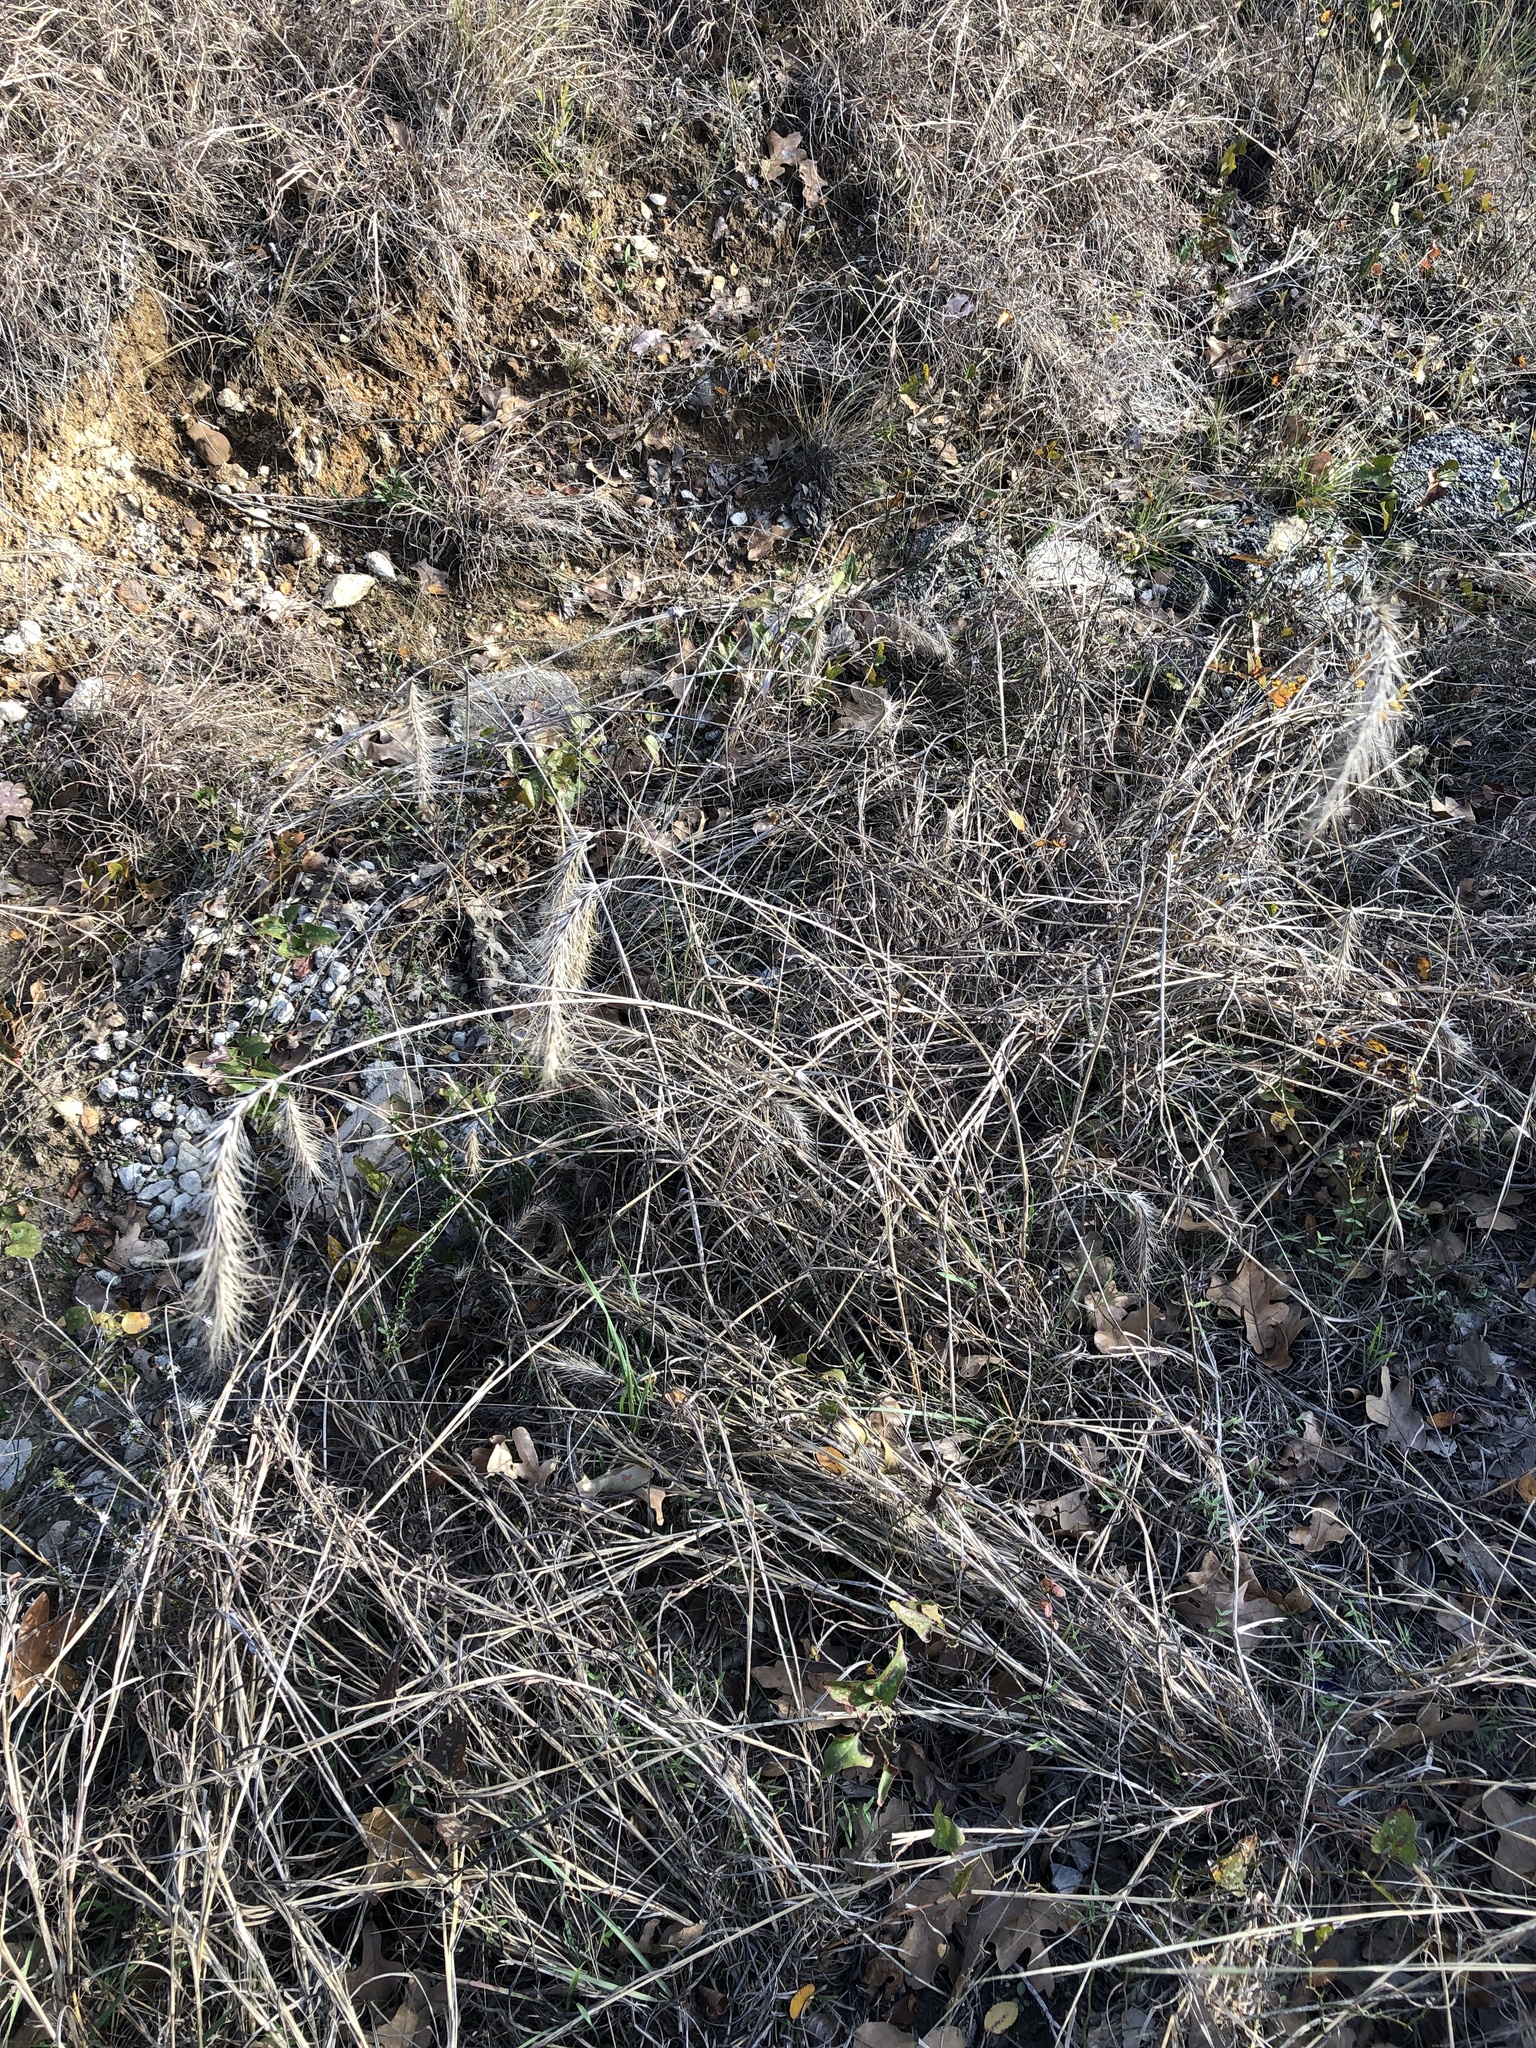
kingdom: Plantae
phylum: Tracheophyta
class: Liliopsida
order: Poales
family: Poaceae
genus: Elymus
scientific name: Elymus canadensis
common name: Canada wild rye
